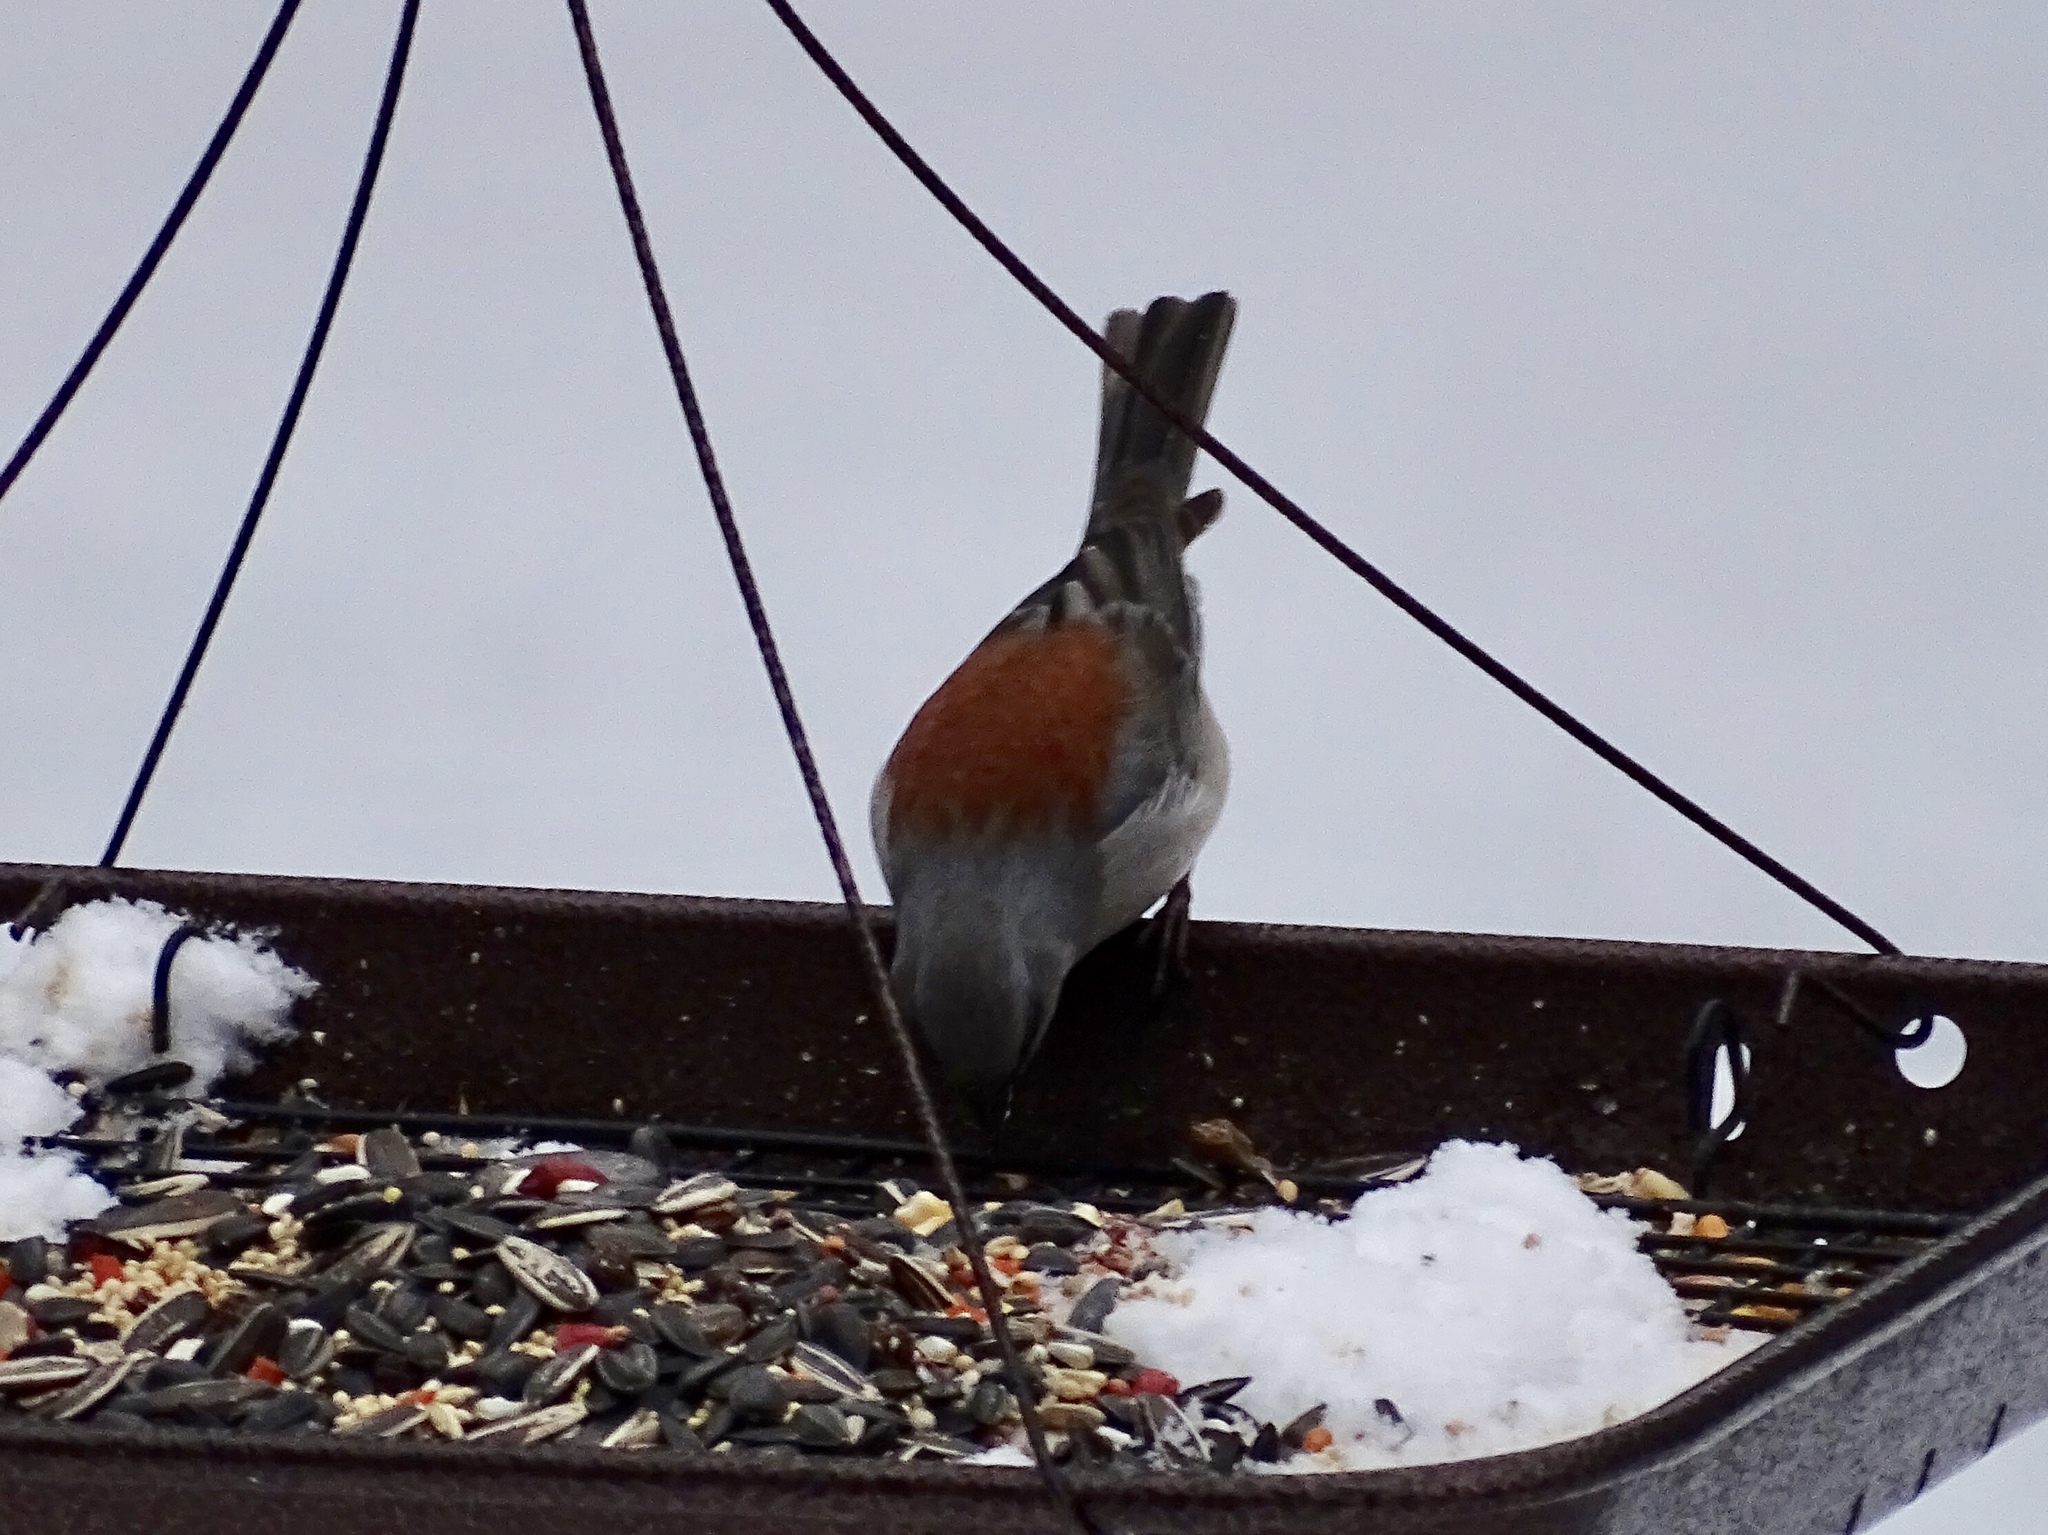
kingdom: Animalia
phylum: Chordata
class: Aves
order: Passeriformes
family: Passerellidae
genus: Junco
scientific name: Junco hyemalis
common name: Dark-eyed junco
